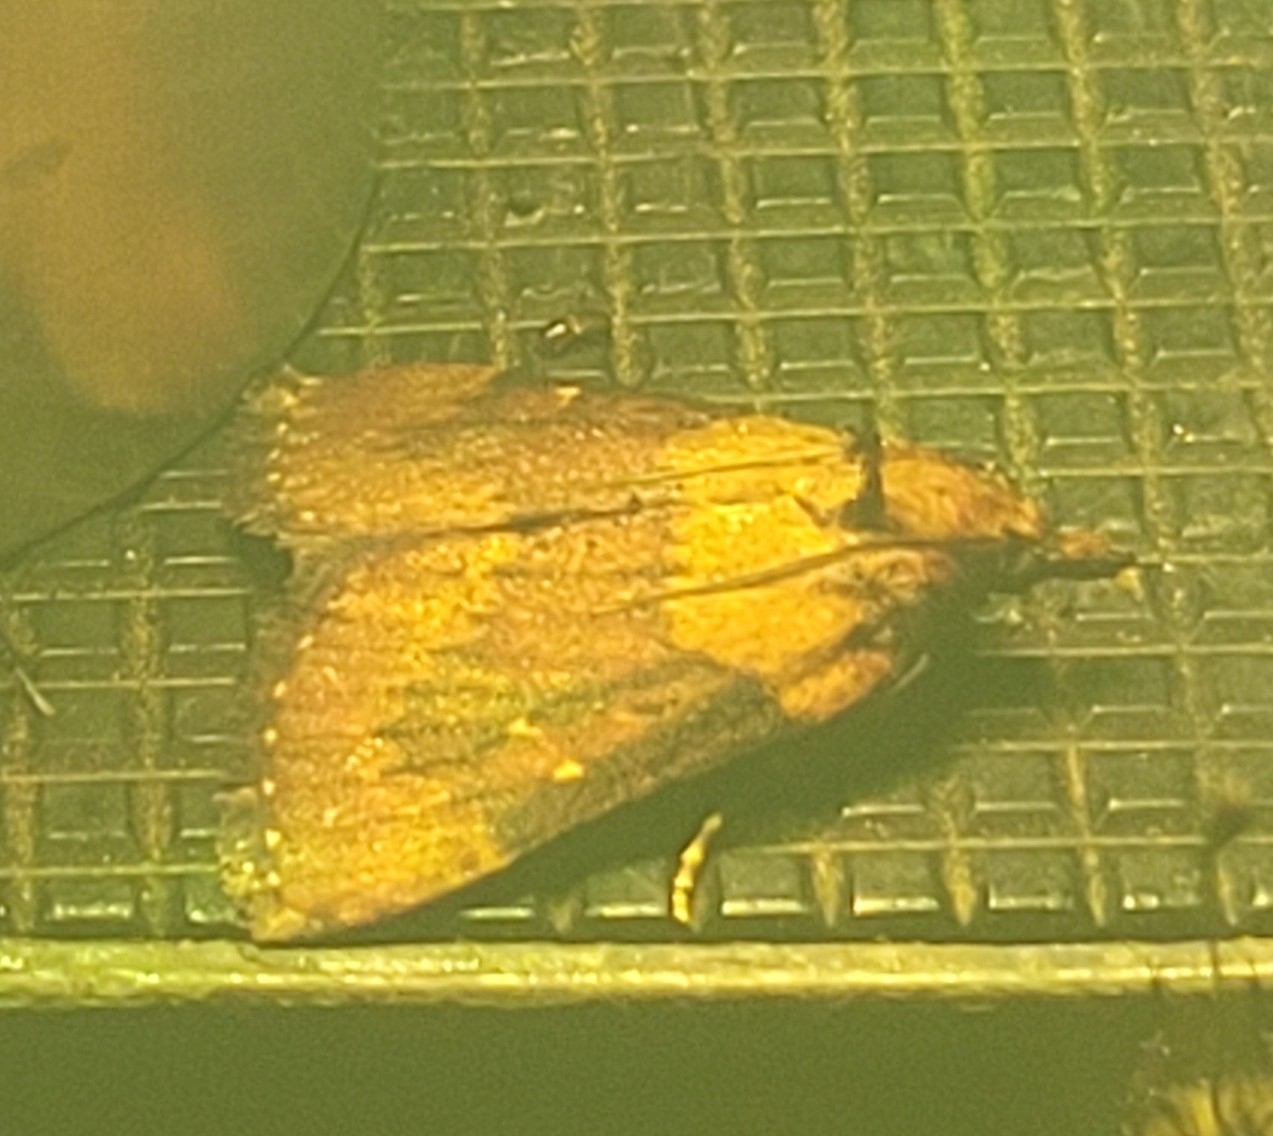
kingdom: Animalia
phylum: Arthropoda
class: Insecta
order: Lepidoptera
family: Pyralidae
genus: Omphalocera
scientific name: Omphalocera munroei
